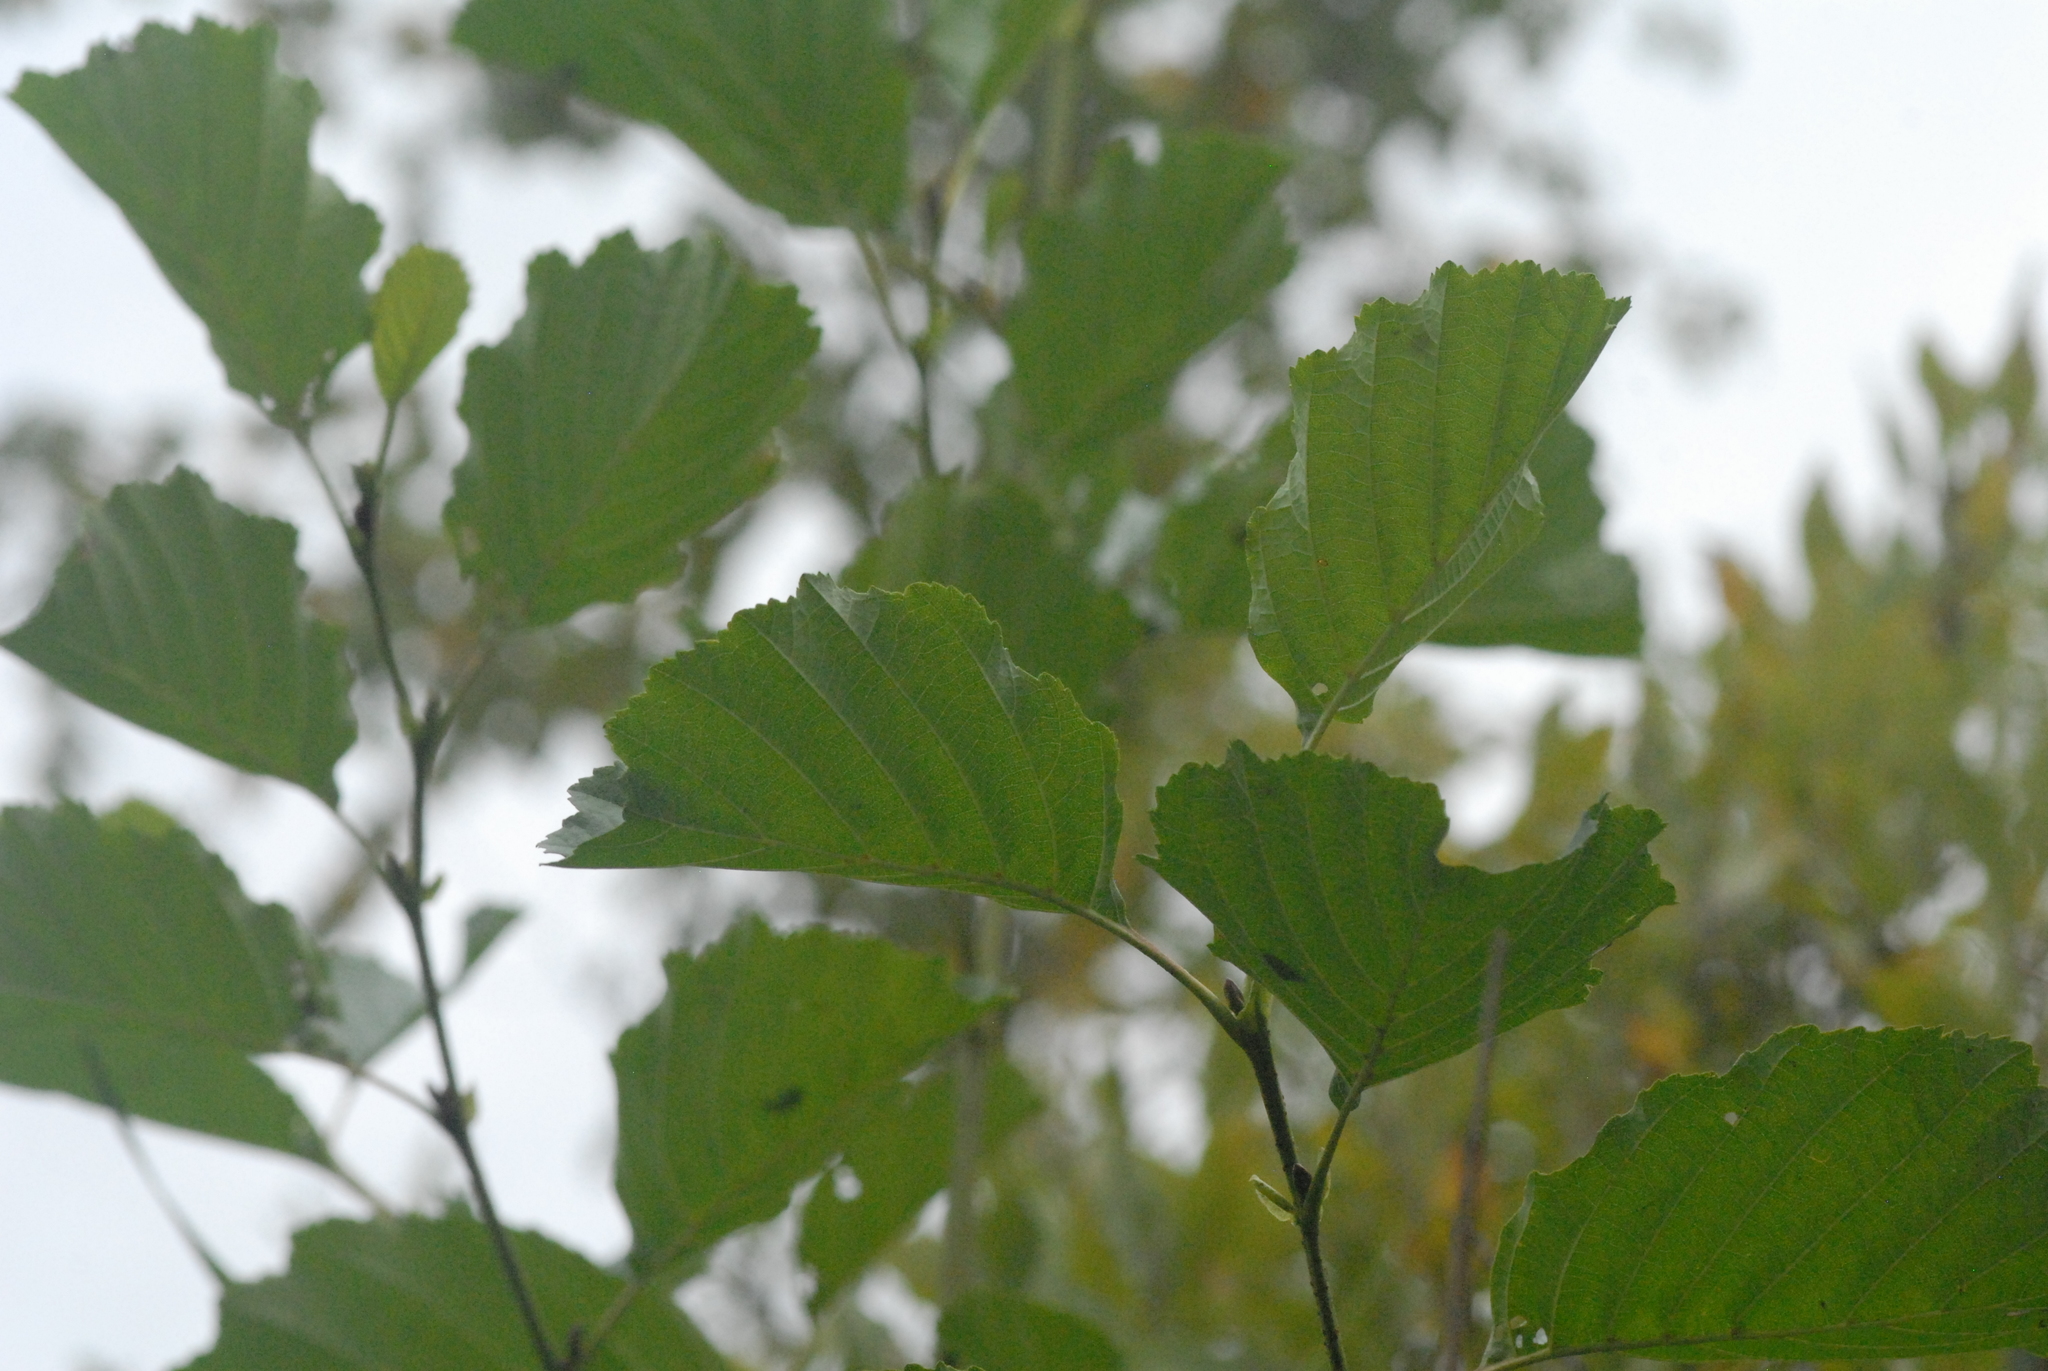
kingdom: Plantae
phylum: Tracheophyta
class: Magnoliopsida
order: Fagales
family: Betulaceae
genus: Alnus
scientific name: Alnus glutinosa
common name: Black alder
